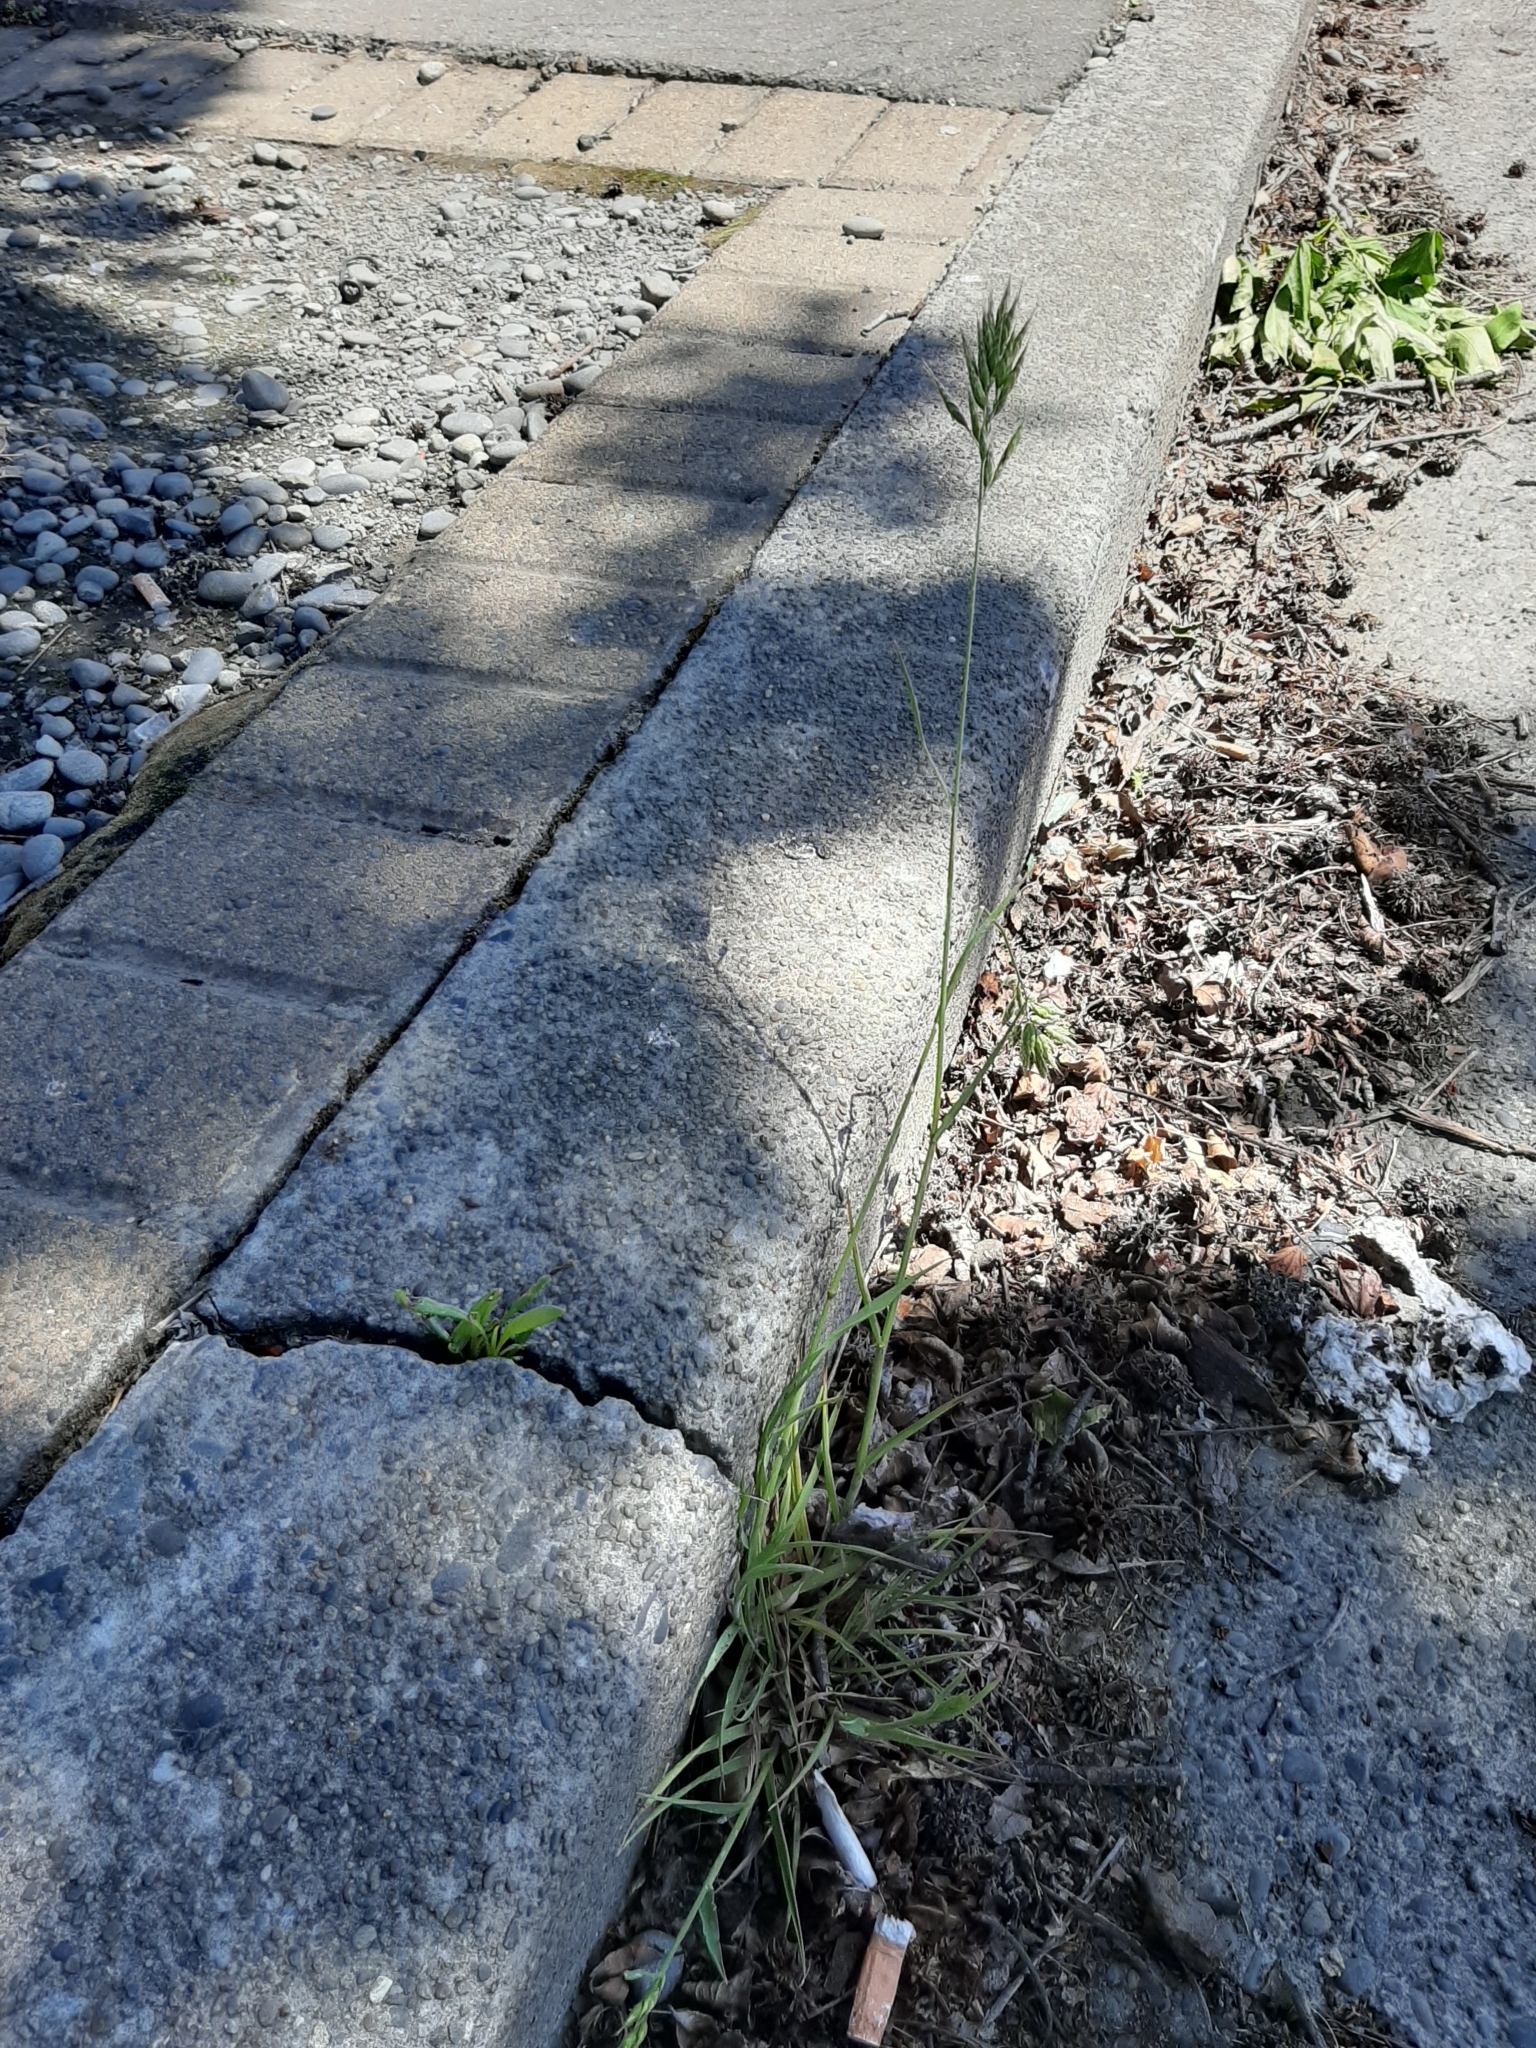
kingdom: Plantae
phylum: Tracheophyta
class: Liliopsida
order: Poales
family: Poaceae
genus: Bromus
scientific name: Bromus hordeaceus
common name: Soft brome
